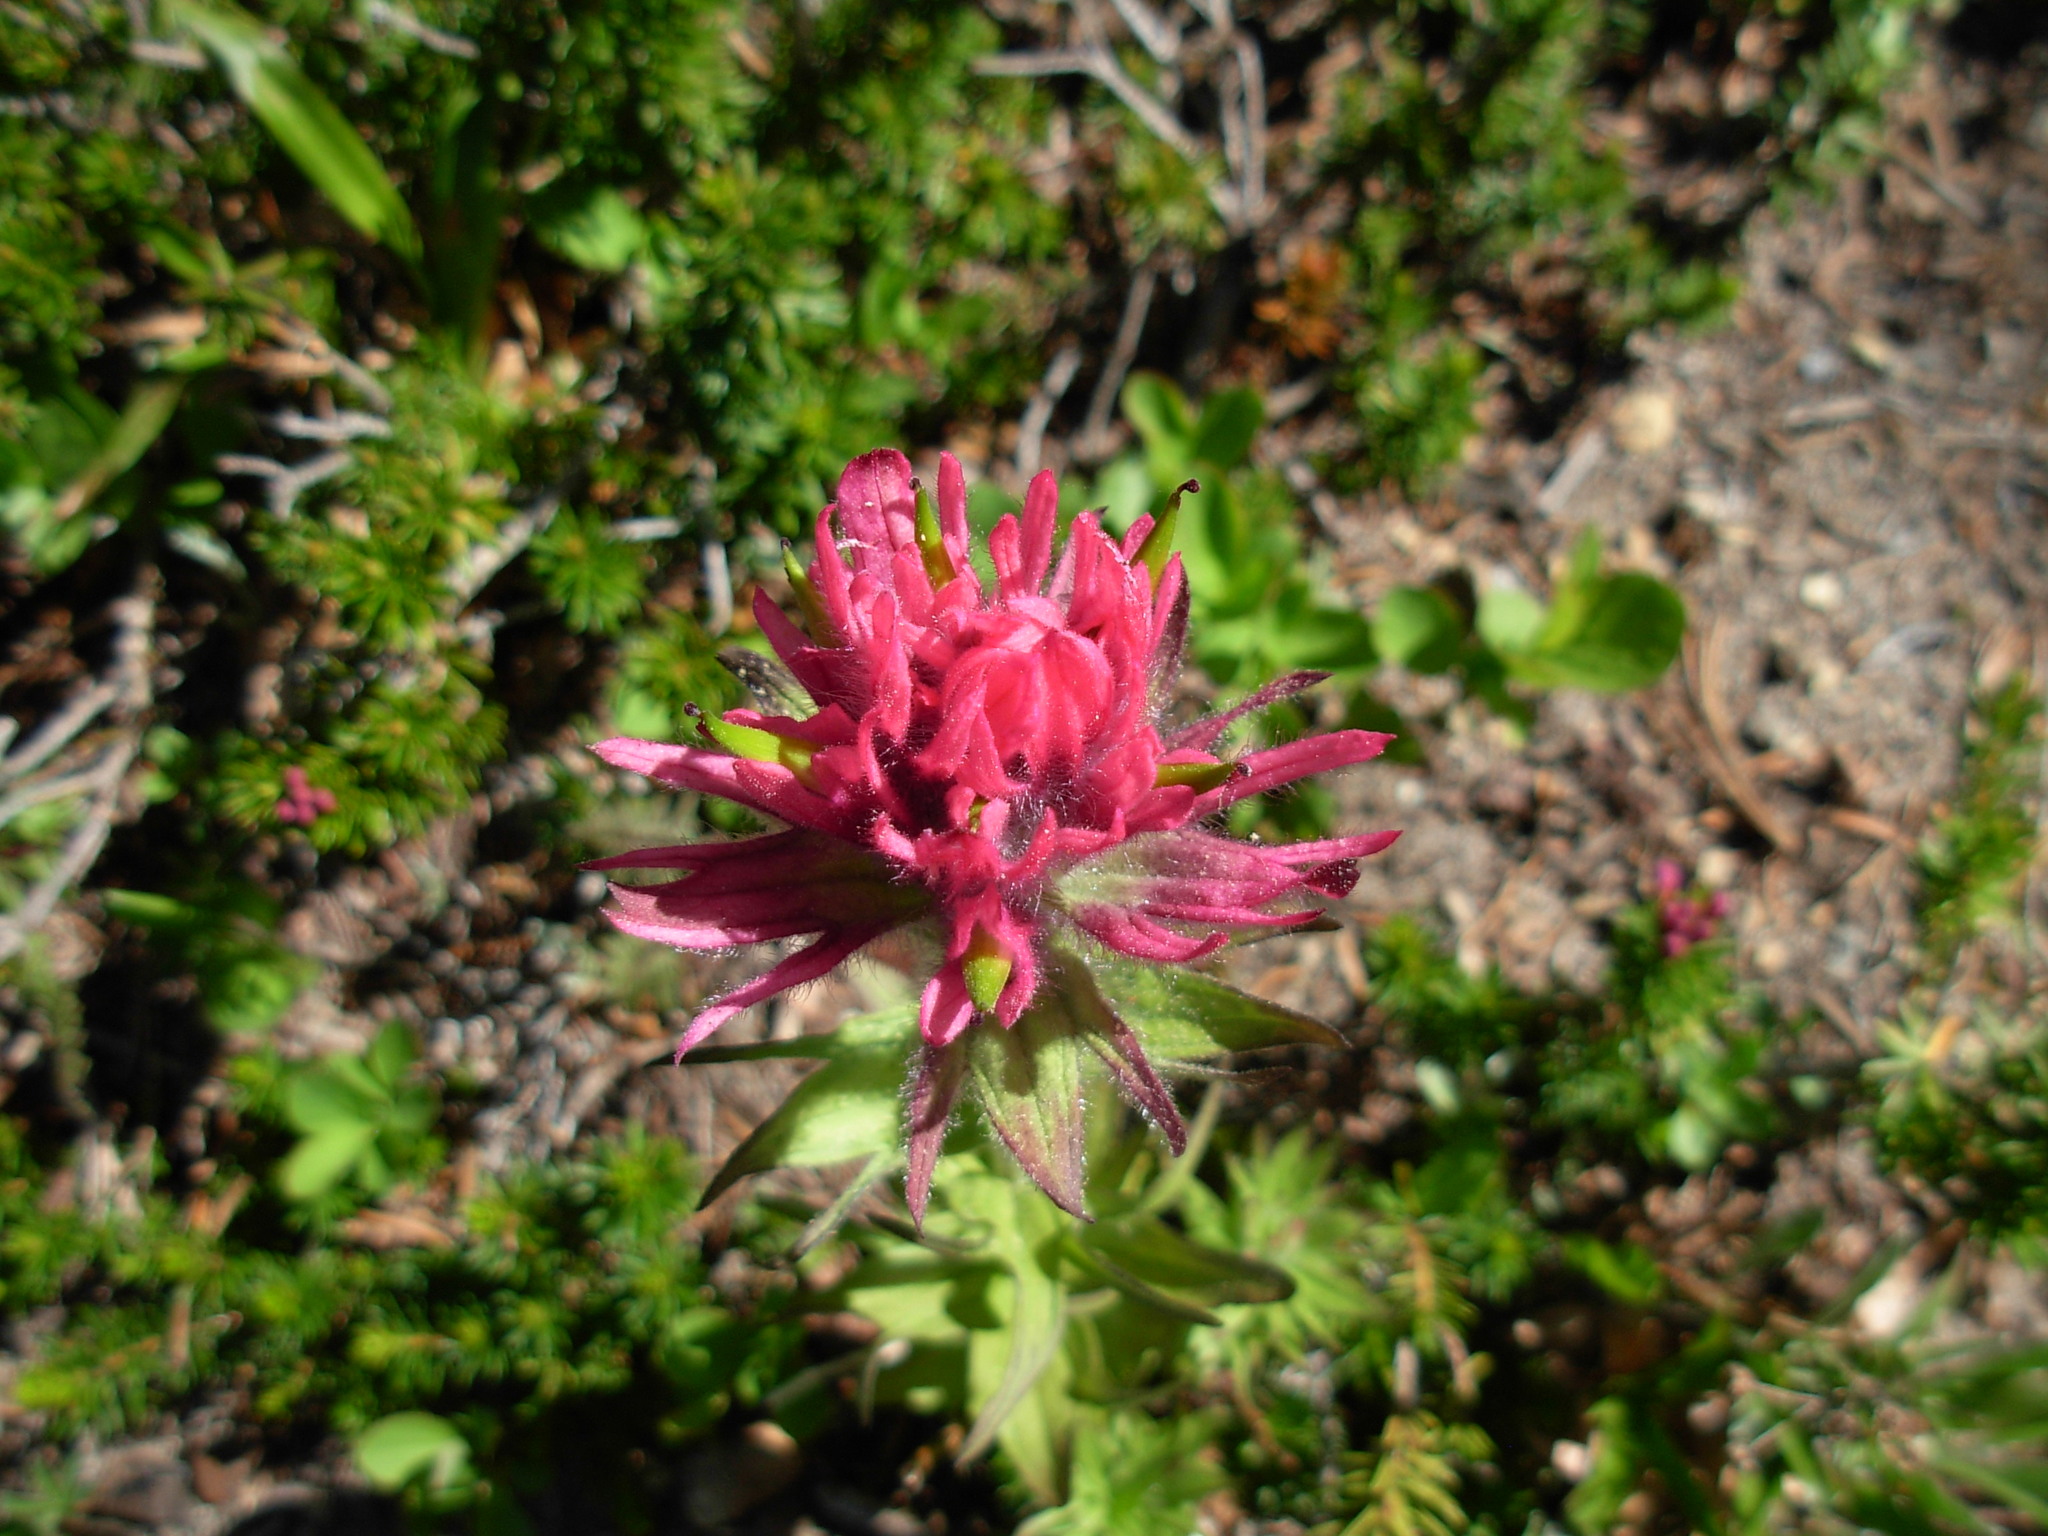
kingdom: Plantae
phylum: Tracheophyta
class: Magnoliopsida
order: Lamiales
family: Orobanchaceae
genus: Castilleja
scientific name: Castilleja parviflora
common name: Mountain paintbrush
